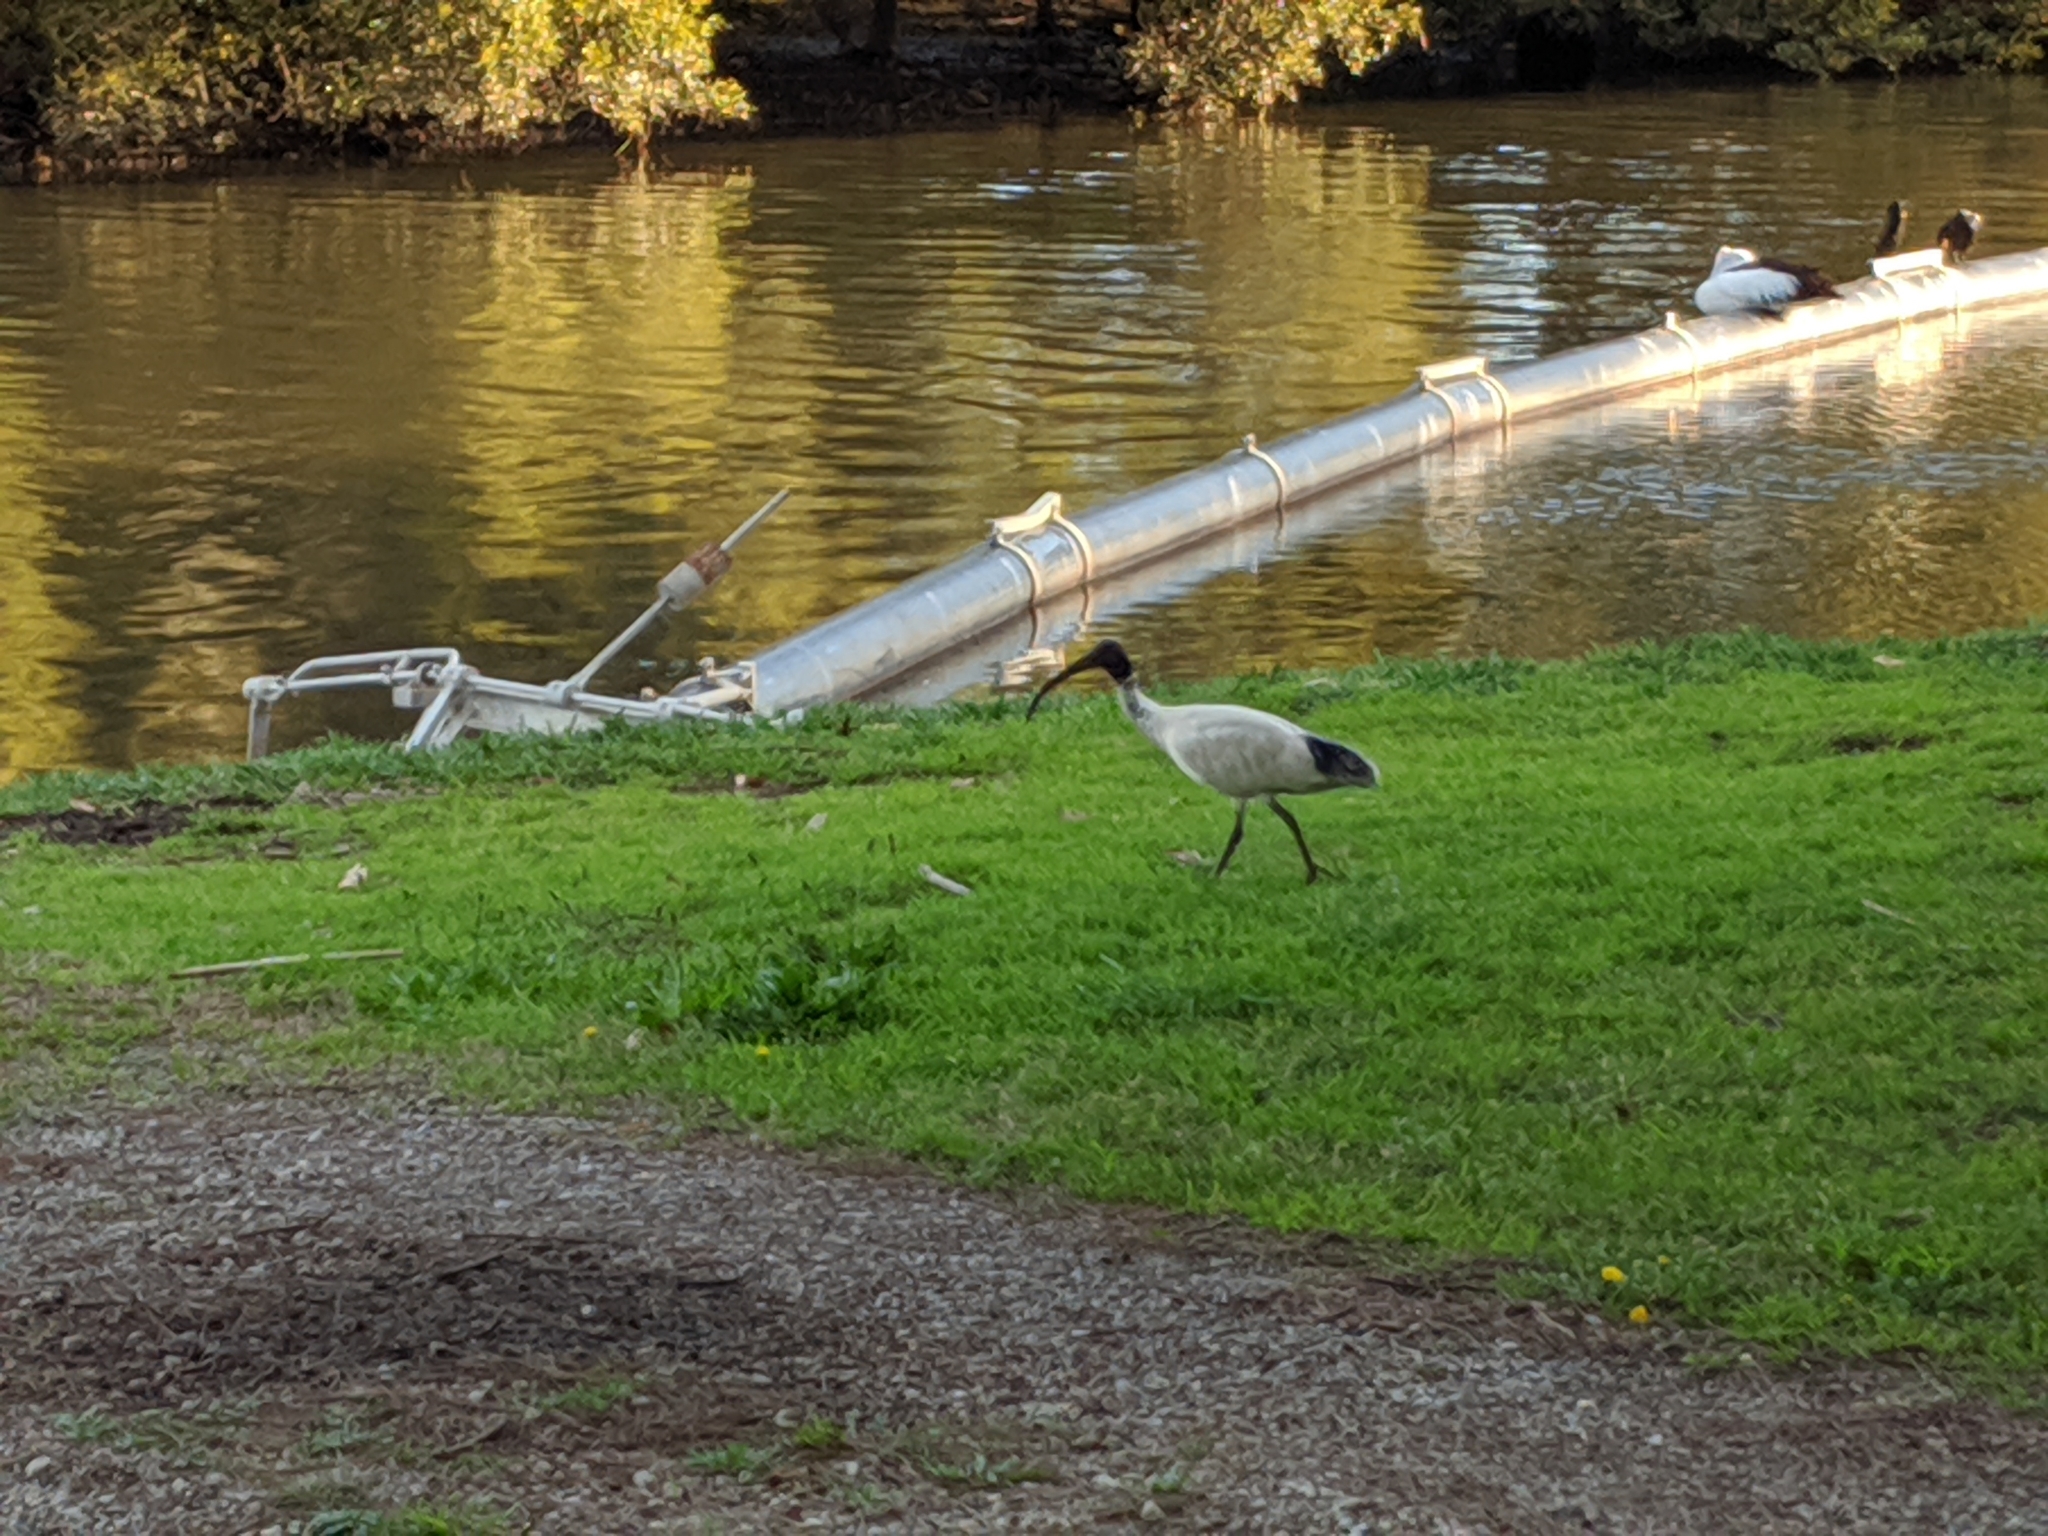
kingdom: Animalia
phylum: Chordata
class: Aves
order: Pelecaniformes
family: Threskiornithidae
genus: Threskiornis
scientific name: Threskiornis molucca
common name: Australian white ibis
